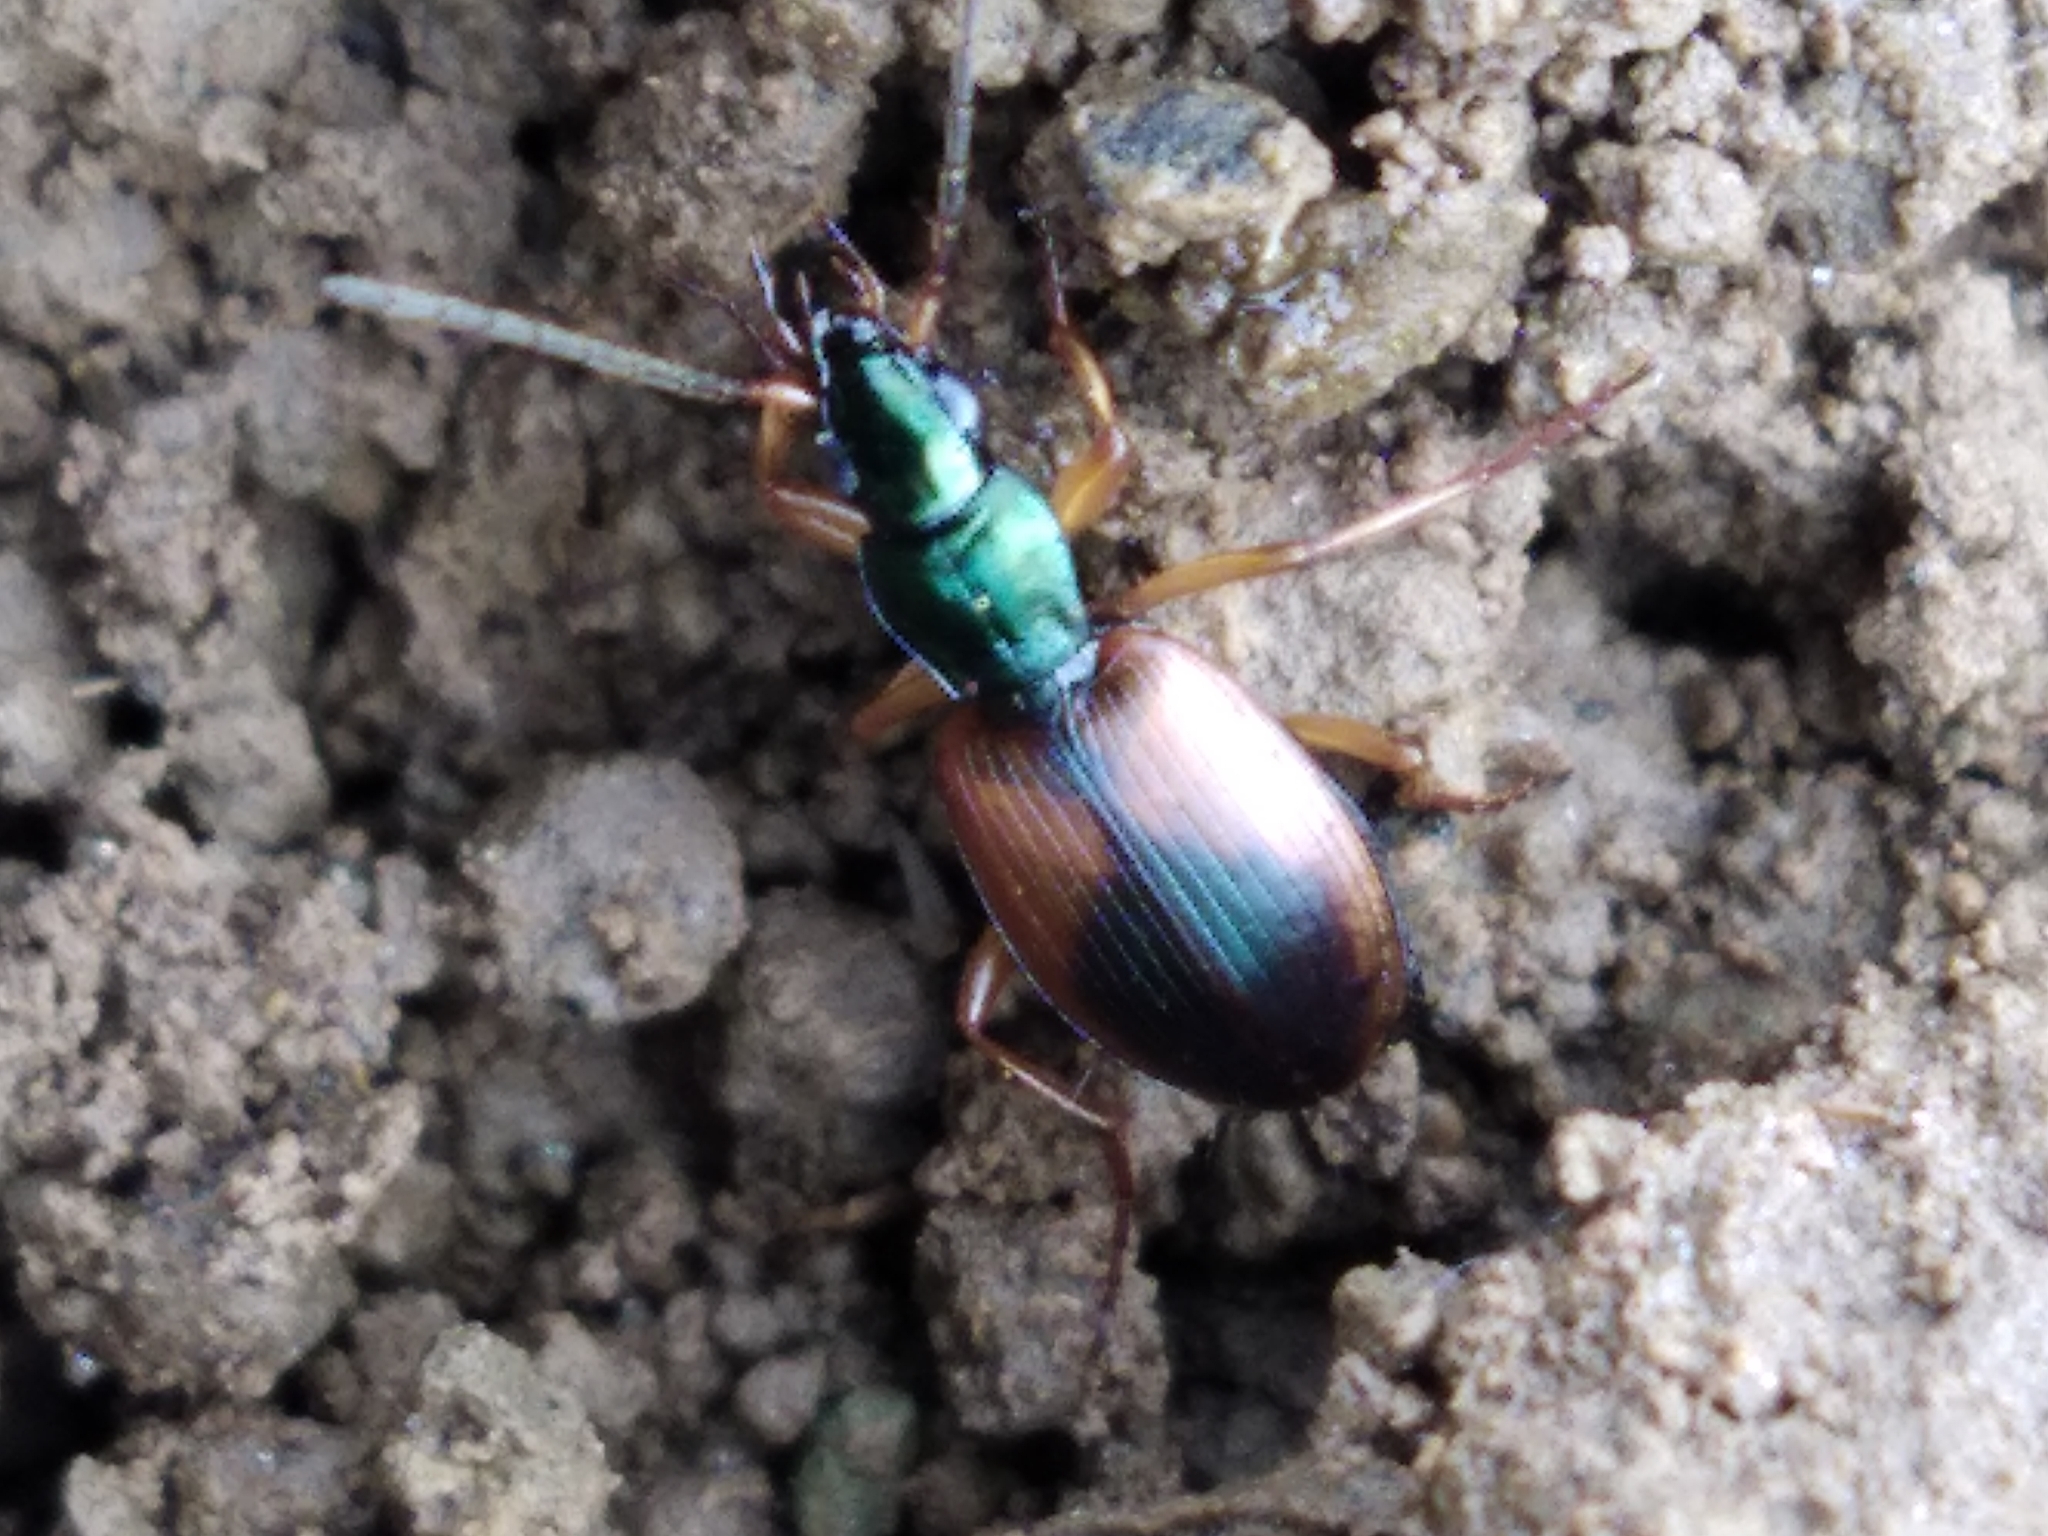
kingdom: Animalia
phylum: Arthropoda
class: Insecta
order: Coleoptera
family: Carabidae
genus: Anchomenus
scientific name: Anchomenus dorsalis
